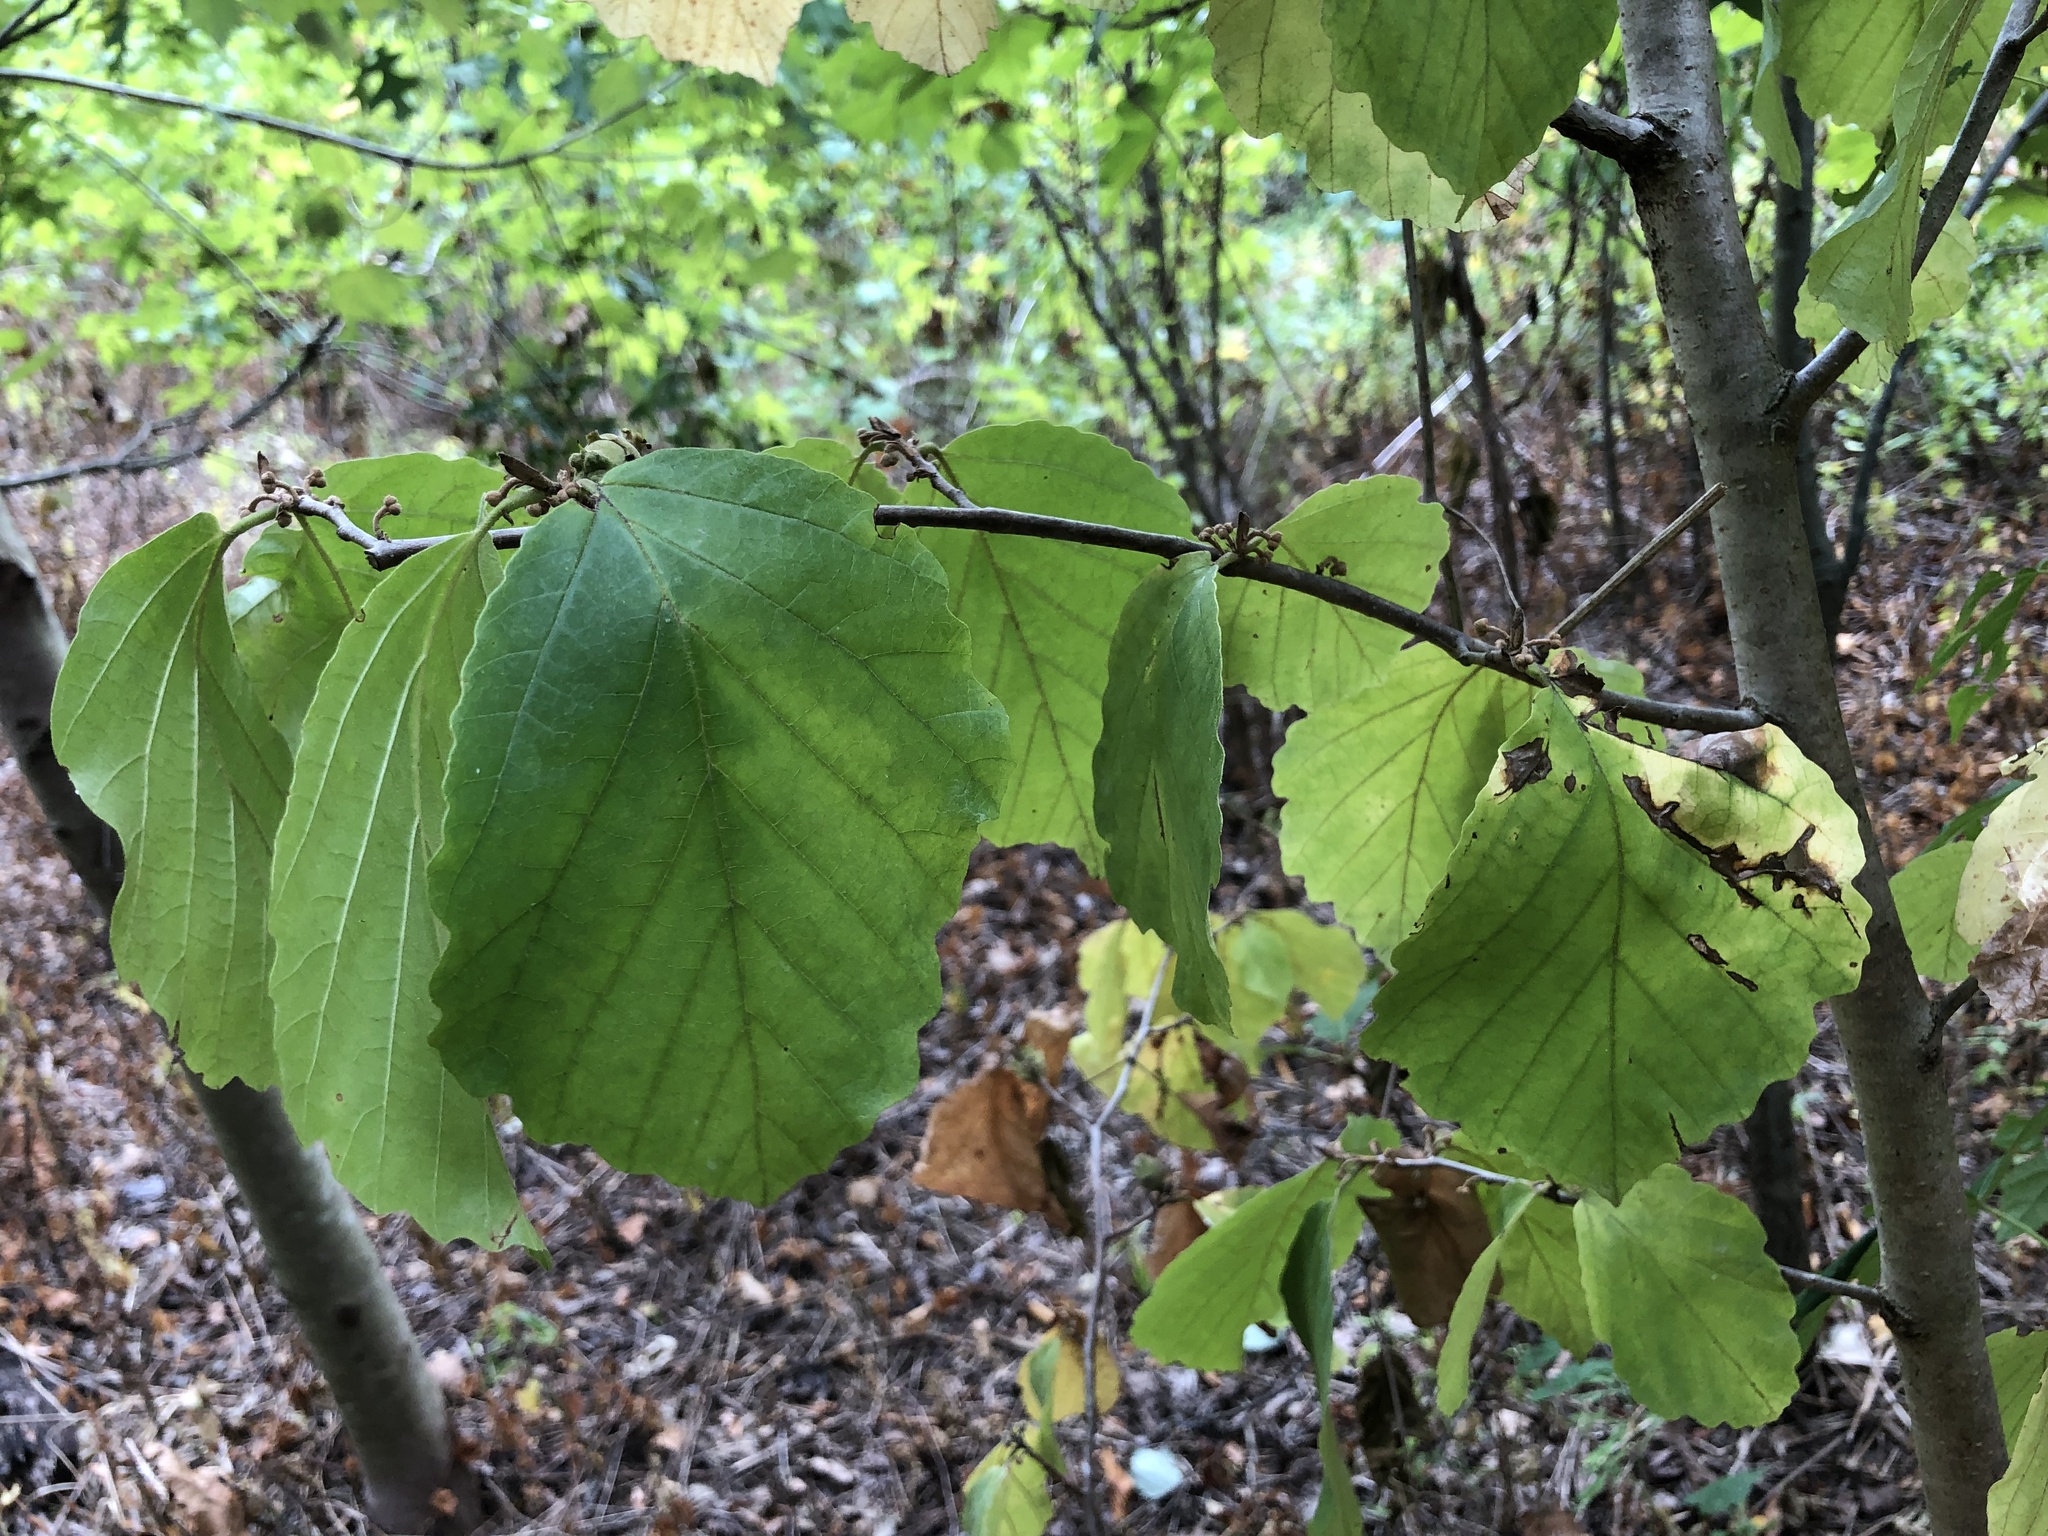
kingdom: Plantae
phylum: Tracheophyta
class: Magnoliopsida
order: Saxifragales
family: Hamamelidaceae
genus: Hamamelis
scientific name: Hamamelis virginiana
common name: Witch-hazel
